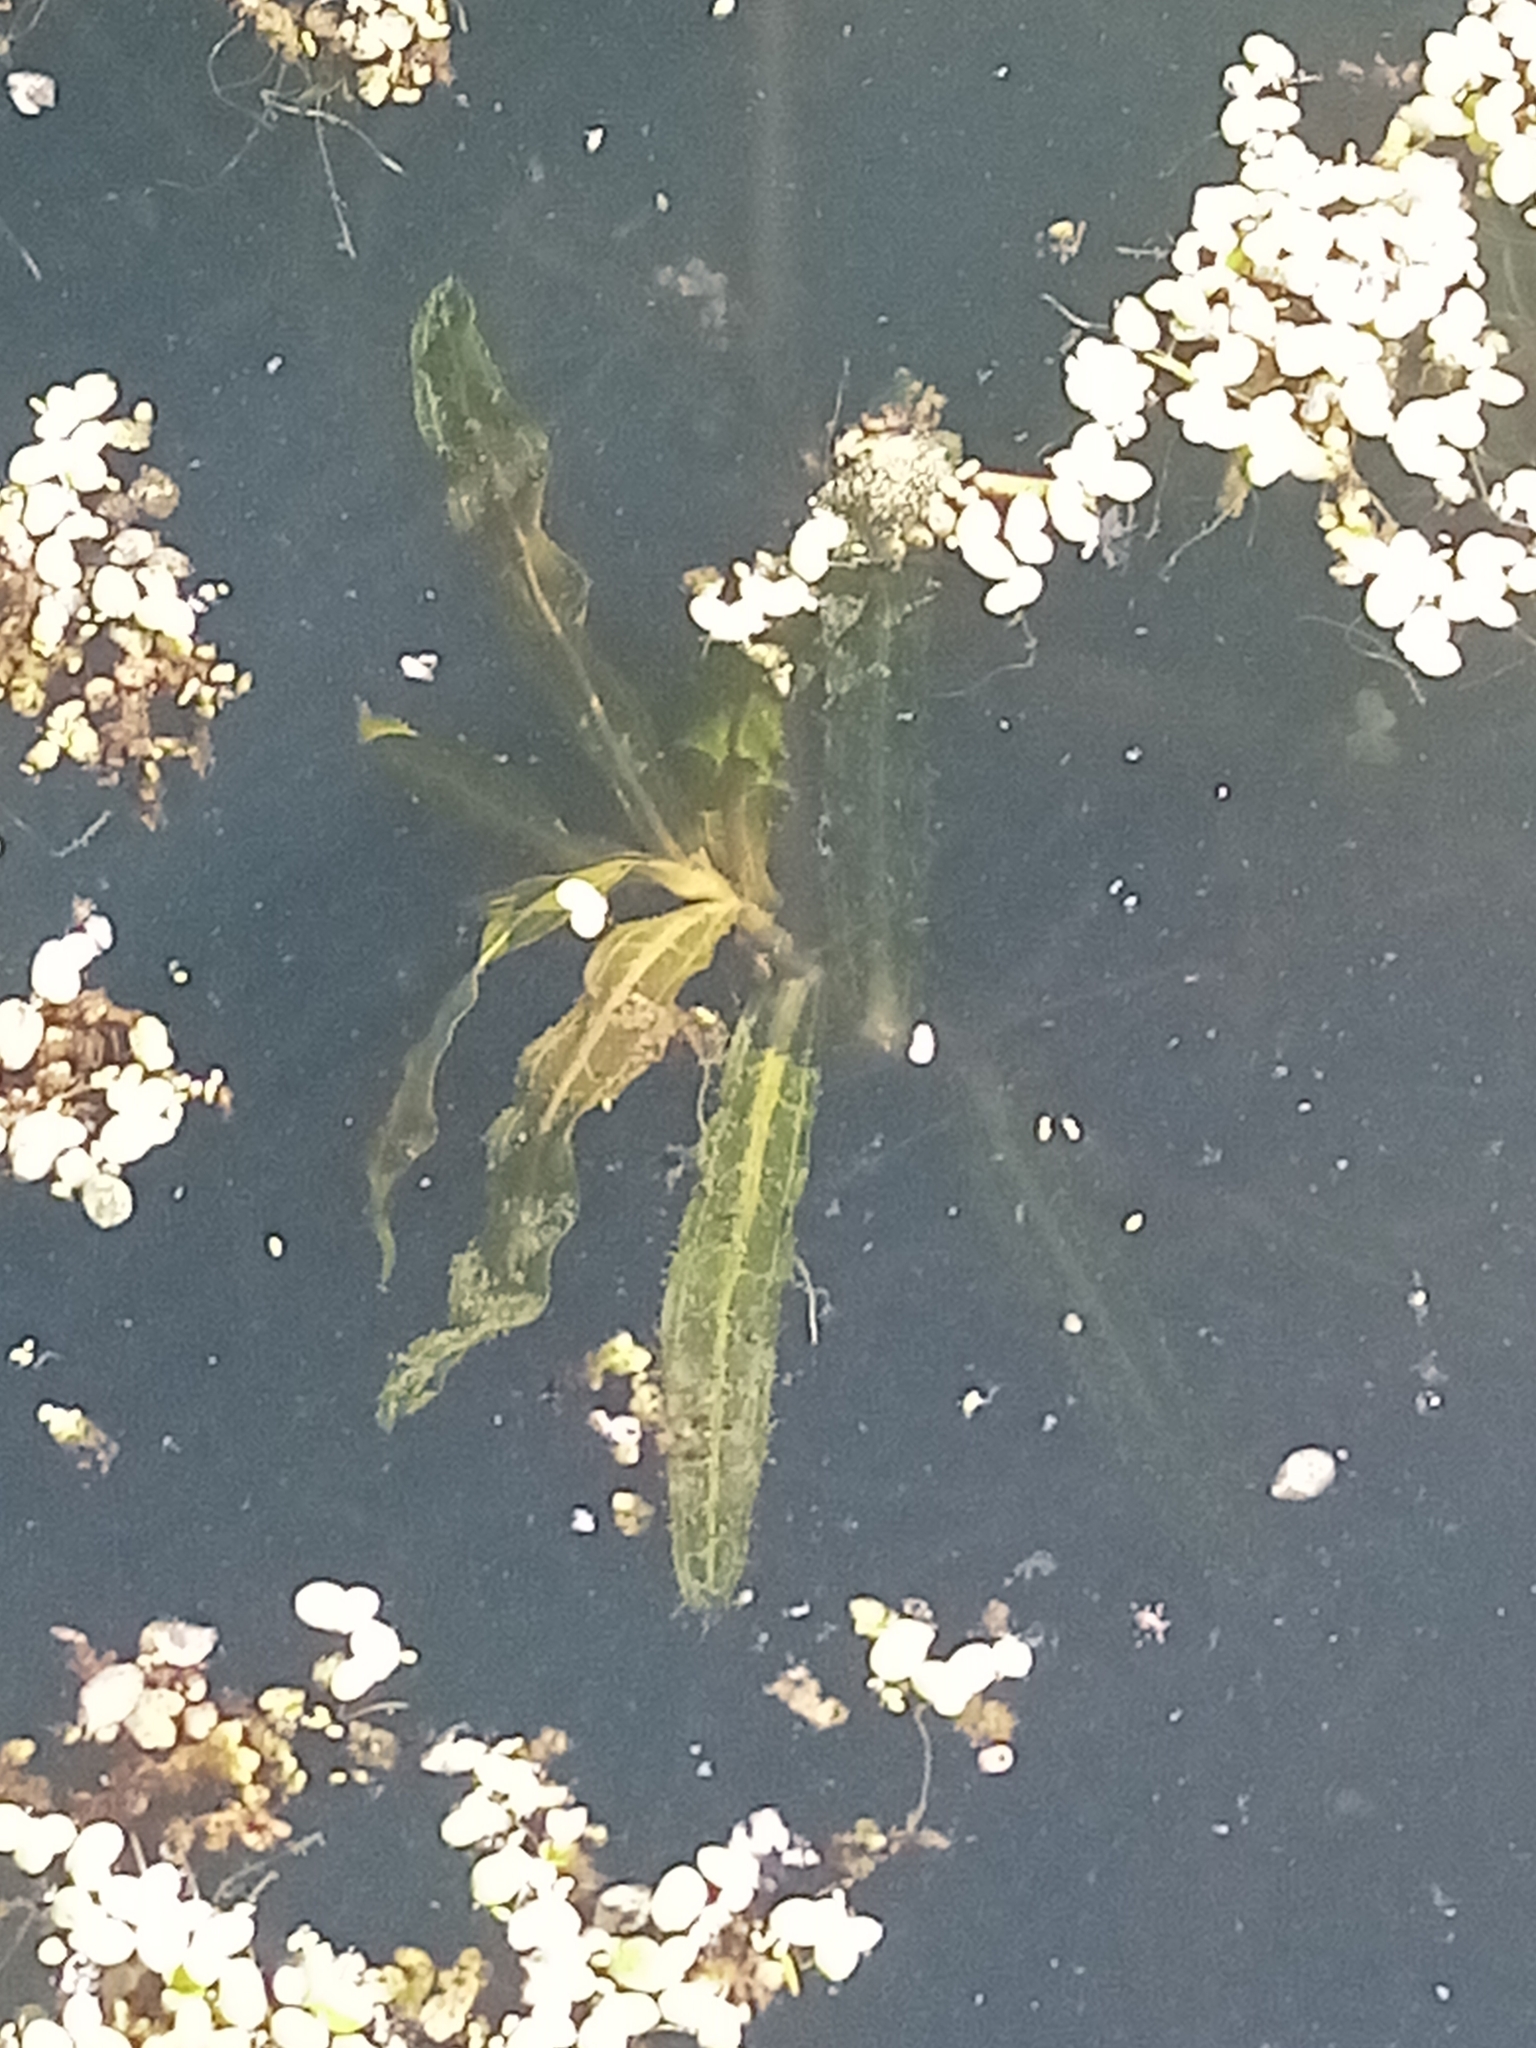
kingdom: Plantae
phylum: Tracheophyta
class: Liliopsida
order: Alismatales
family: Potamogetonaceae
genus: Potamogeton
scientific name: Potamogeton crispus
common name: Curled pondweed
